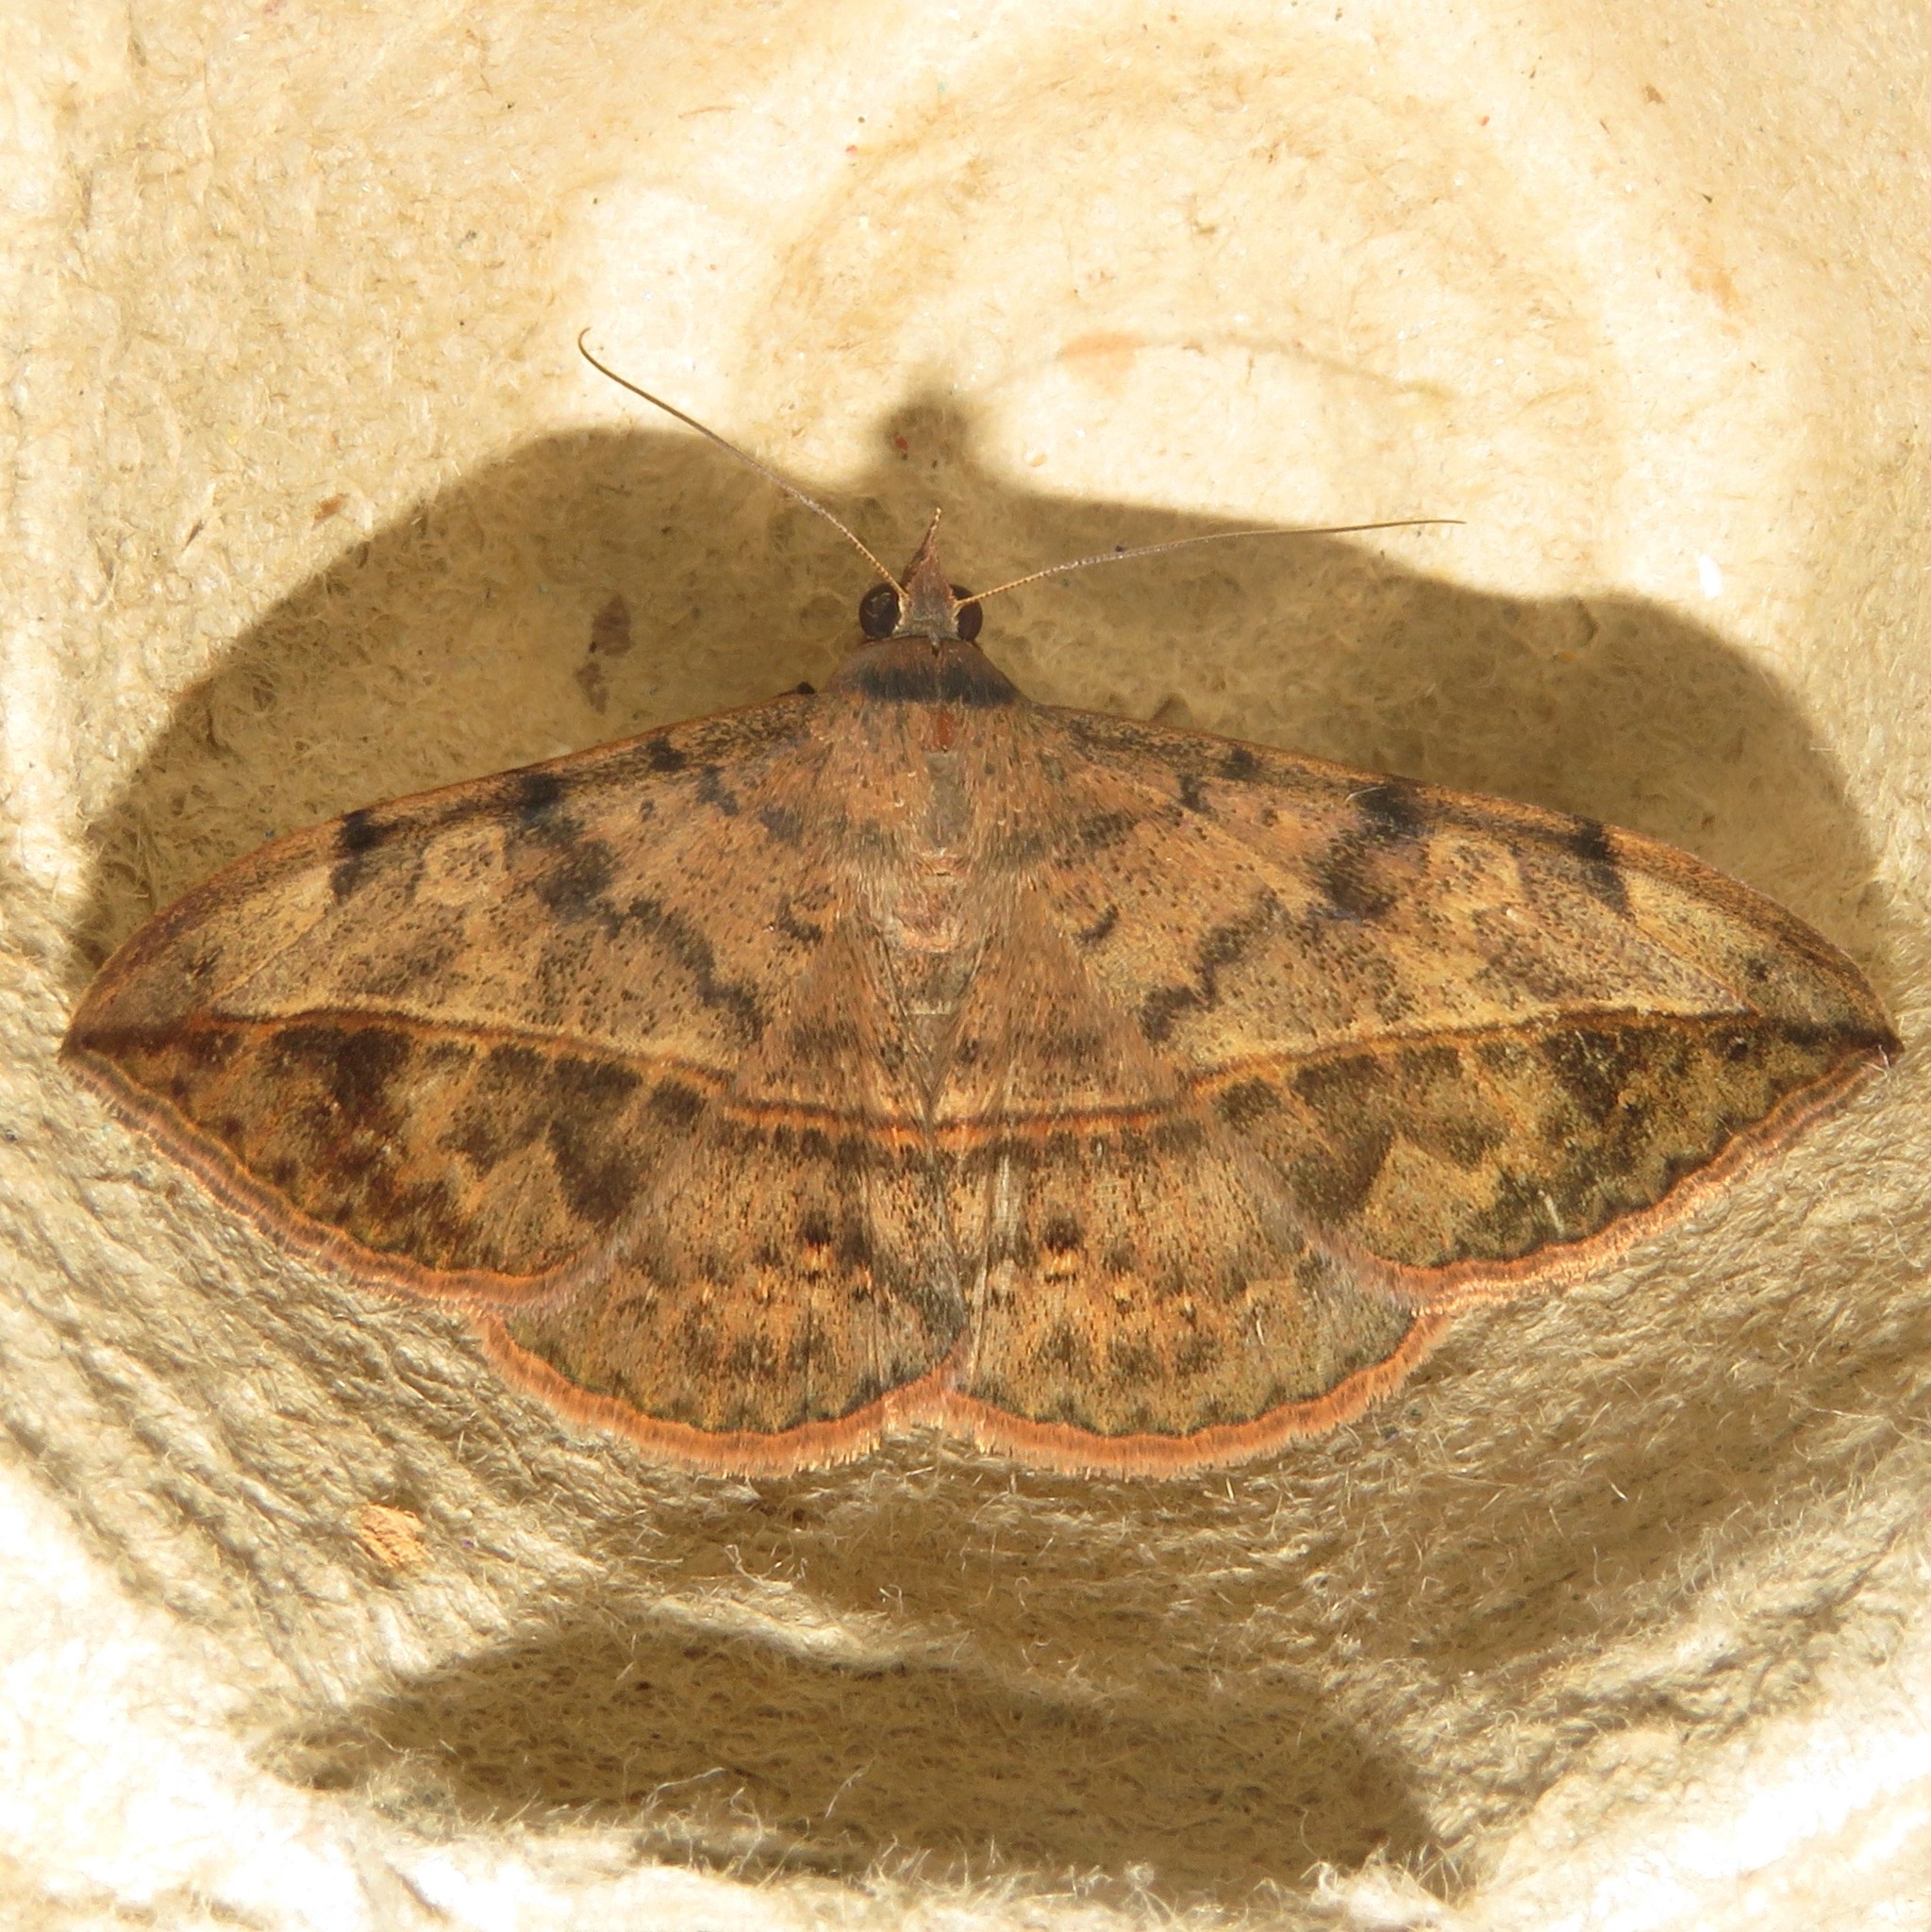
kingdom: Animalia
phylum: Arthropoda
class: Insecta
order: Lepidoptera
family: Erebidae
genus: Anticarsia
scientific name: Anticarsia gemmatalis
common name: Cutworm moth
